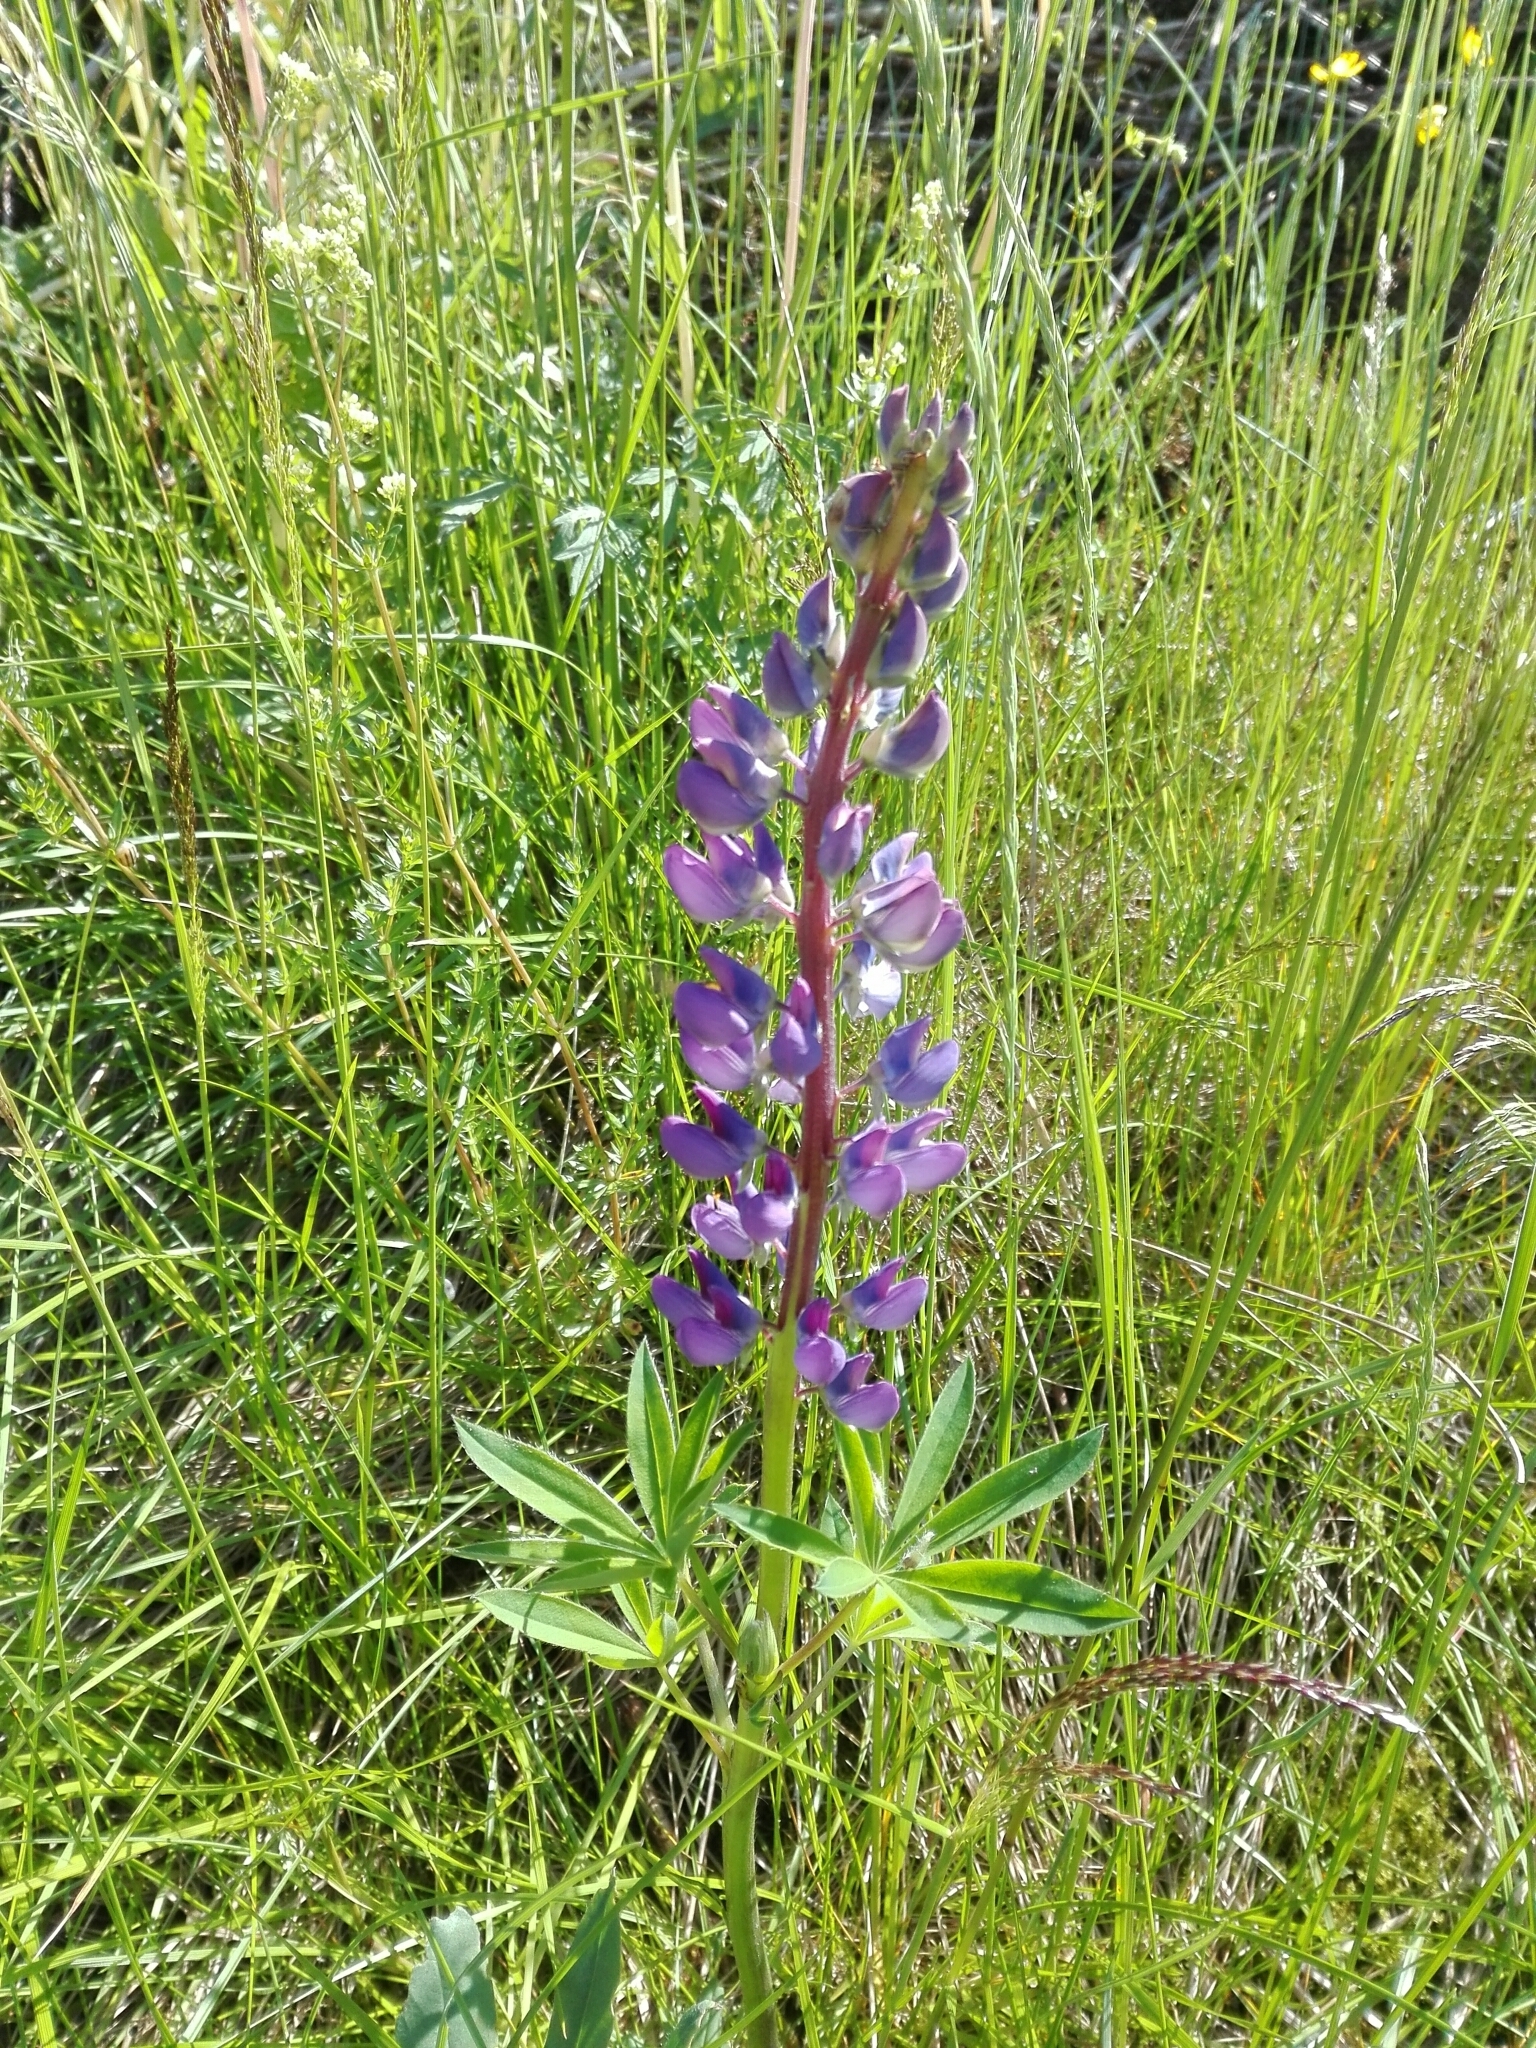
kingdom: Plantae
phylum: Tracheophyta
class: Magnoliopsida
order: Fabales
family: Fabaceae
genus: Lupinus
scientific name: Lupinus polyphyllus
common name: Garden lupin
